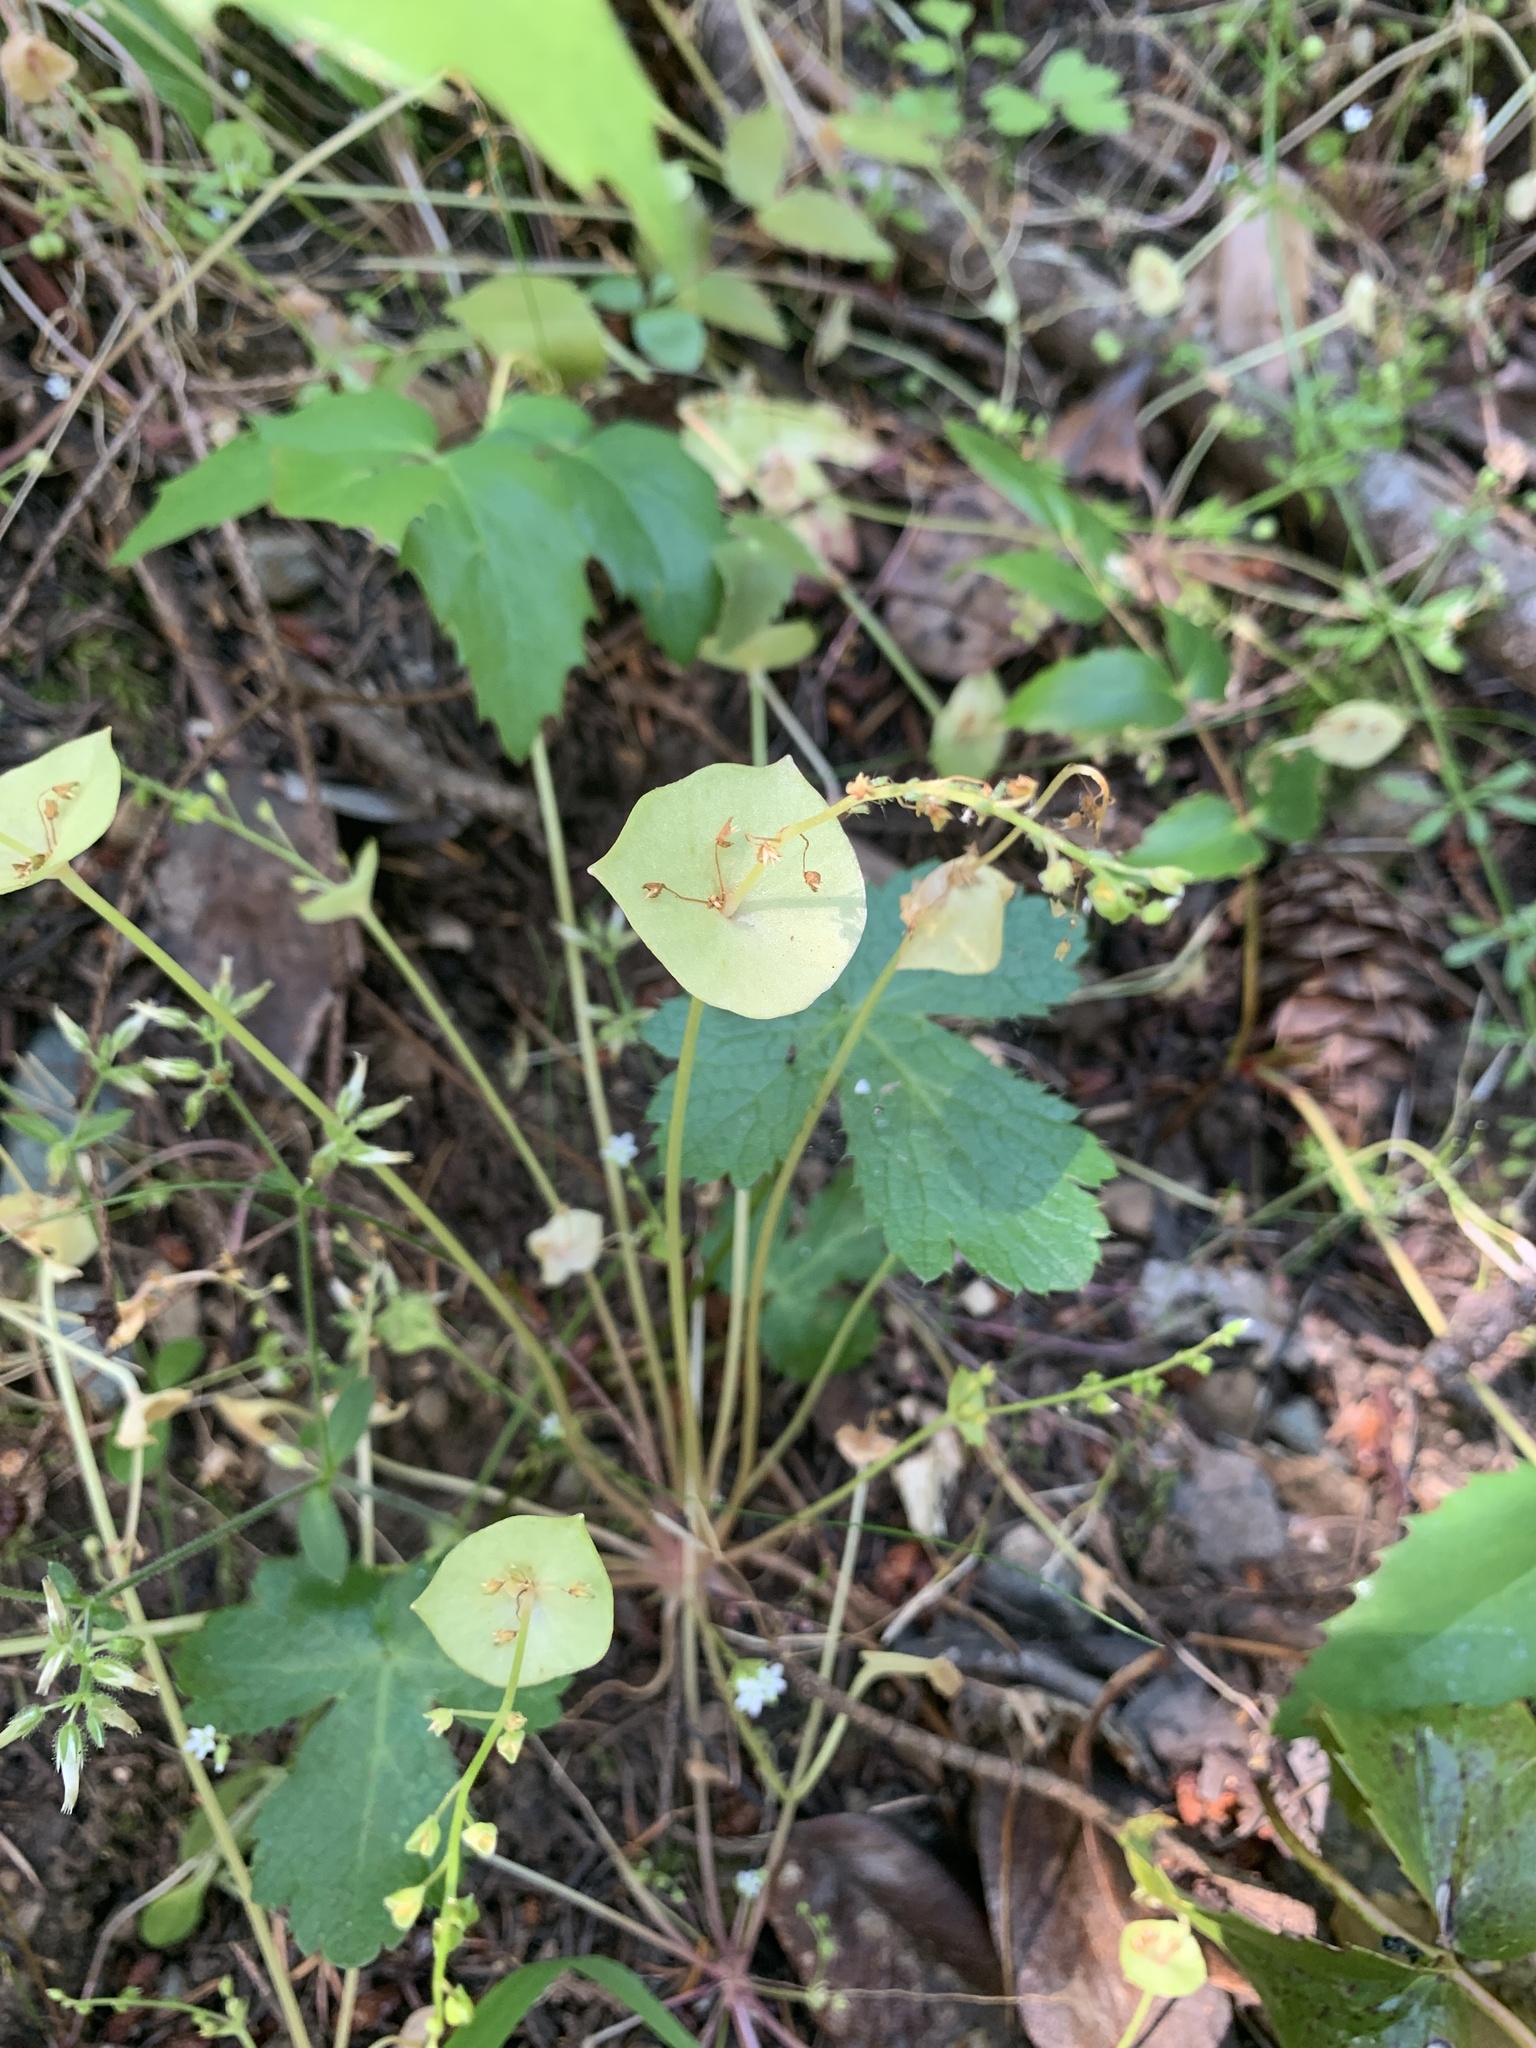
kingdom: Plantae
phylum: Tracheophyta
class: Magnoliopsida
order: Caryophyllales
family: Montiaceae
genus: Claytonia
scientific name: Claytonia perfoliata
